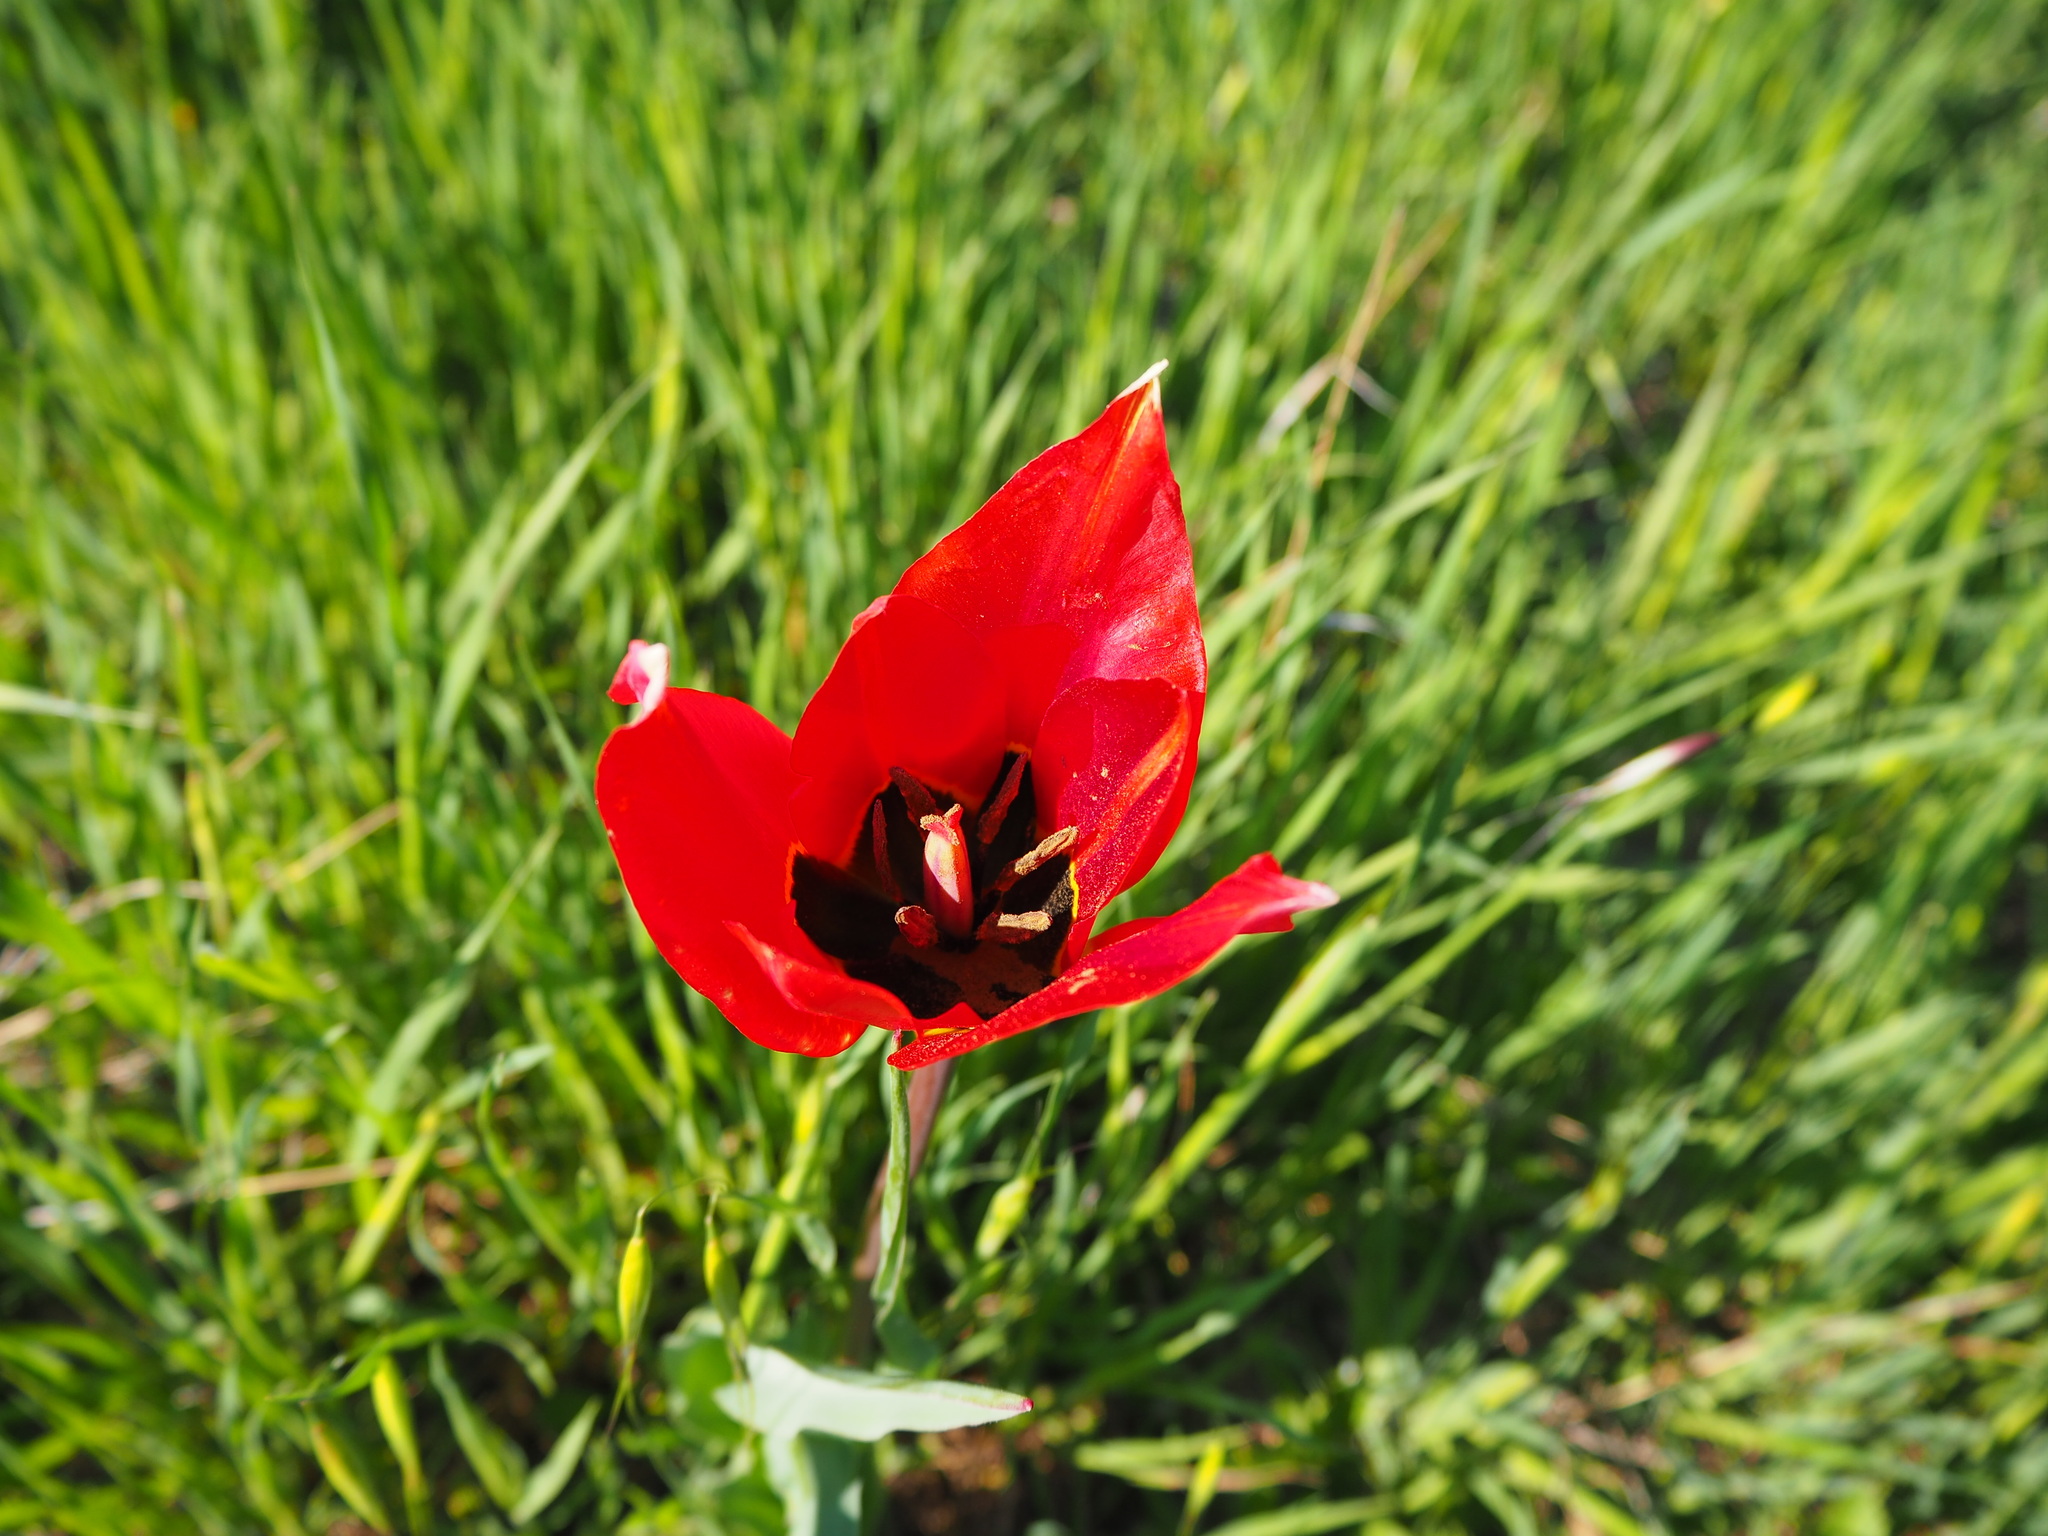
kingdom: Plantae
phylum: Tracheophyta
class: Liliopsida
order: Liliales
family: Liliaceae
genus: Tulipa
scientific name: Tulipa agenensis
